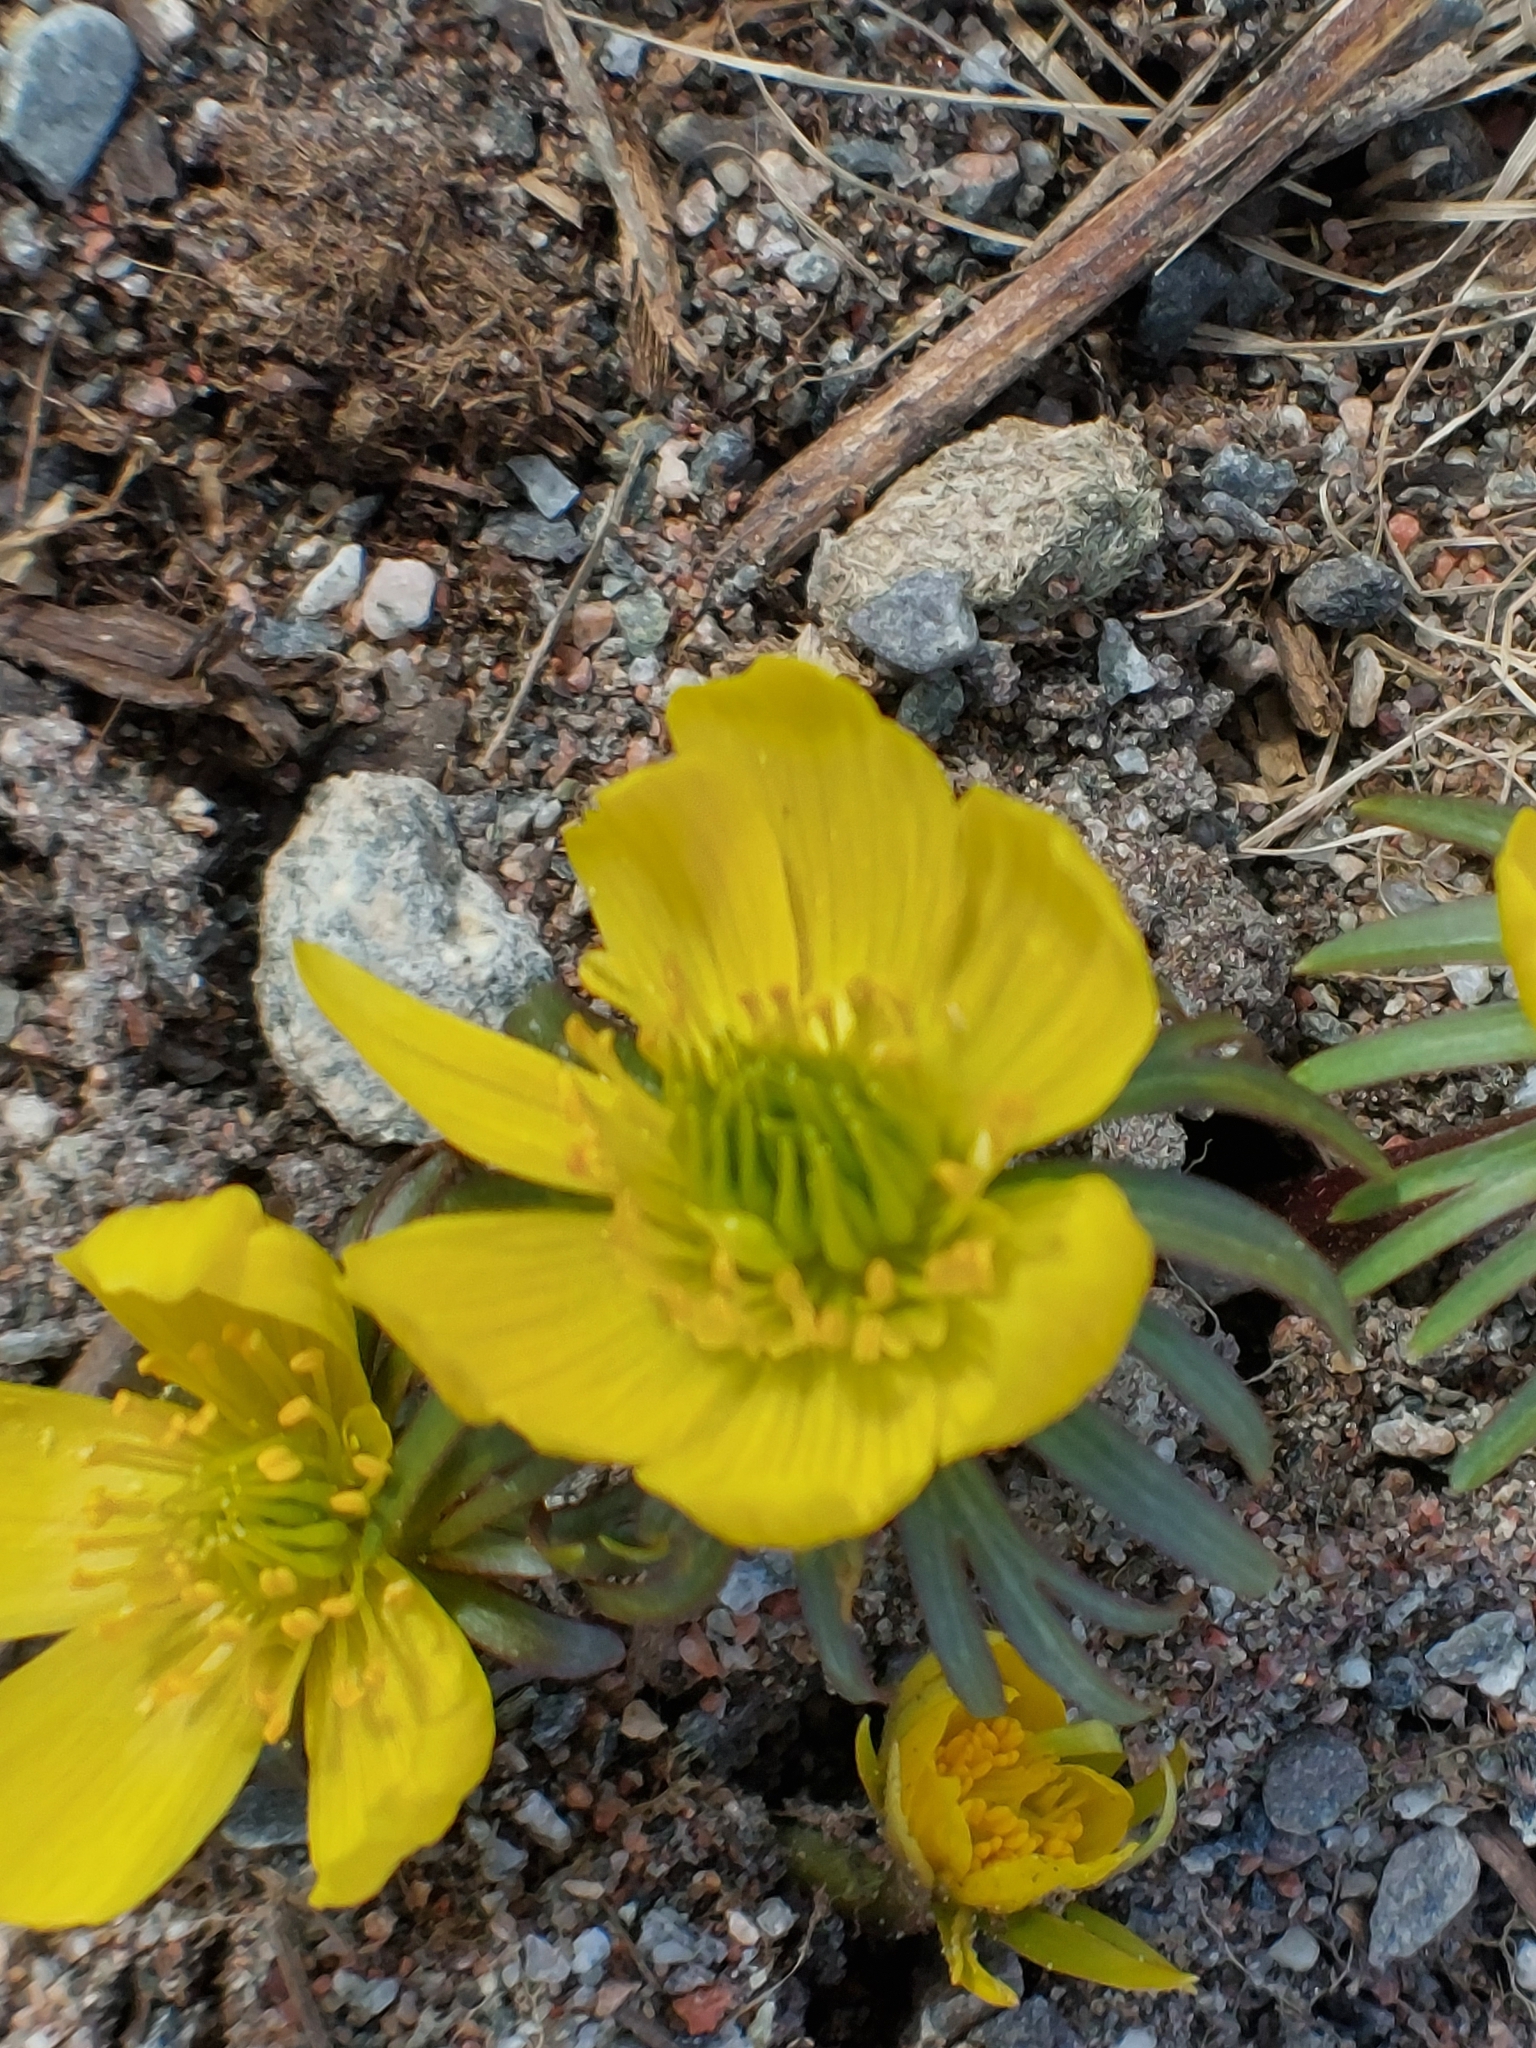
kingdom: Plantae
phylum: Tracheophyta
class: Magnoliopsida
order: Ranunculales
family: Ranunculaceae
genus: Eranthis
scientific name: Eranthis hyemalis
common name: Winter aconite
